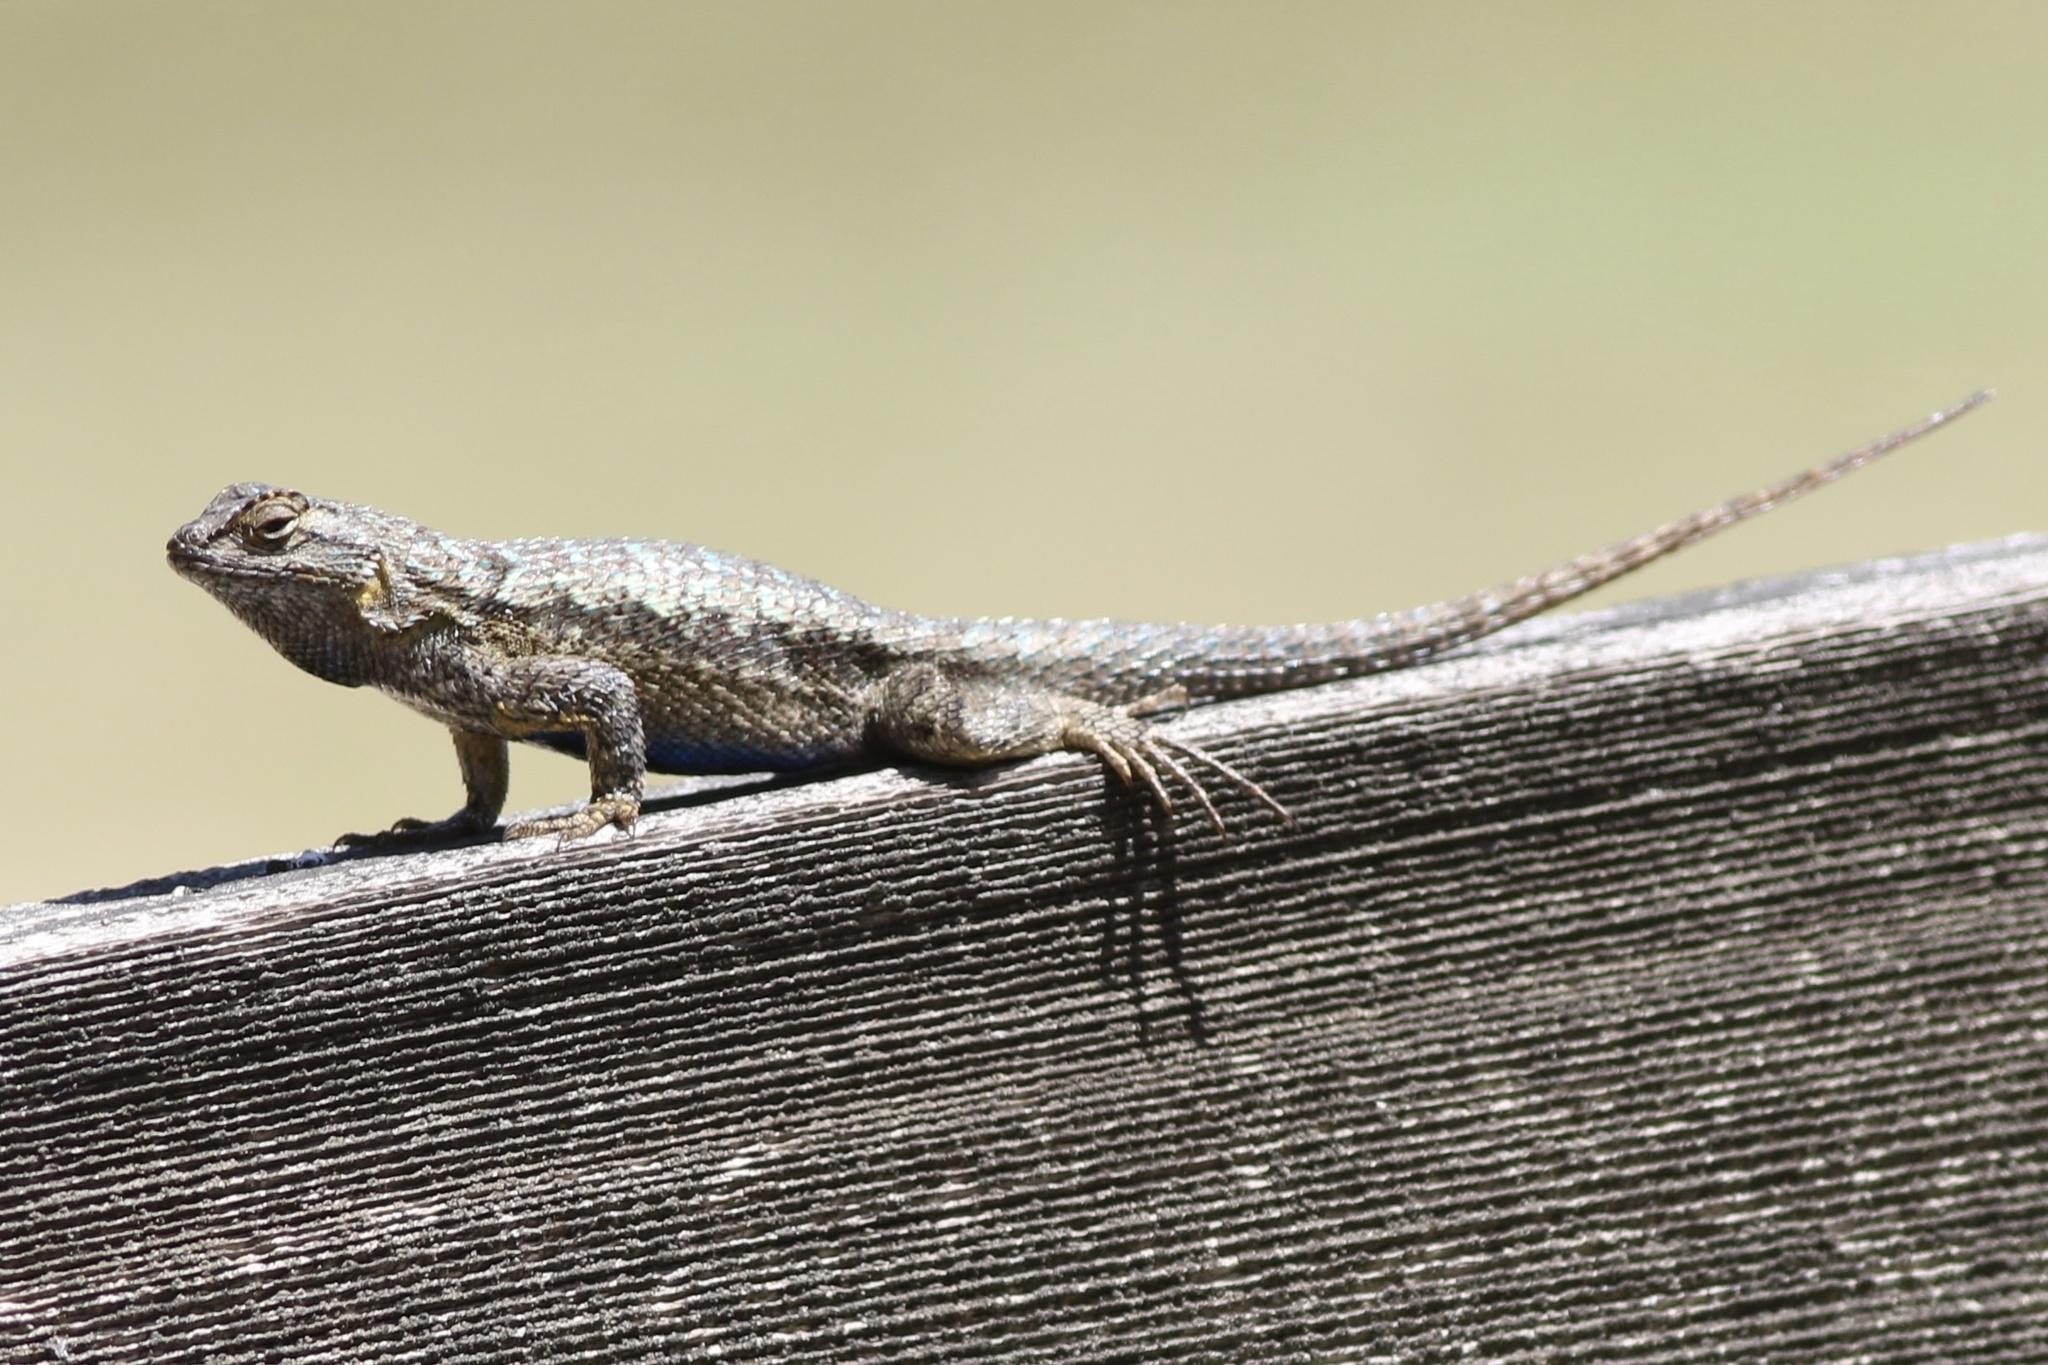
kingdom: Animalia
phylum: Chordata
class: Squamata
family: Phrynosomatidae
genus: Sceloporus
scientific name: Sceloporus occidentalis
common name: Western fence lizard
